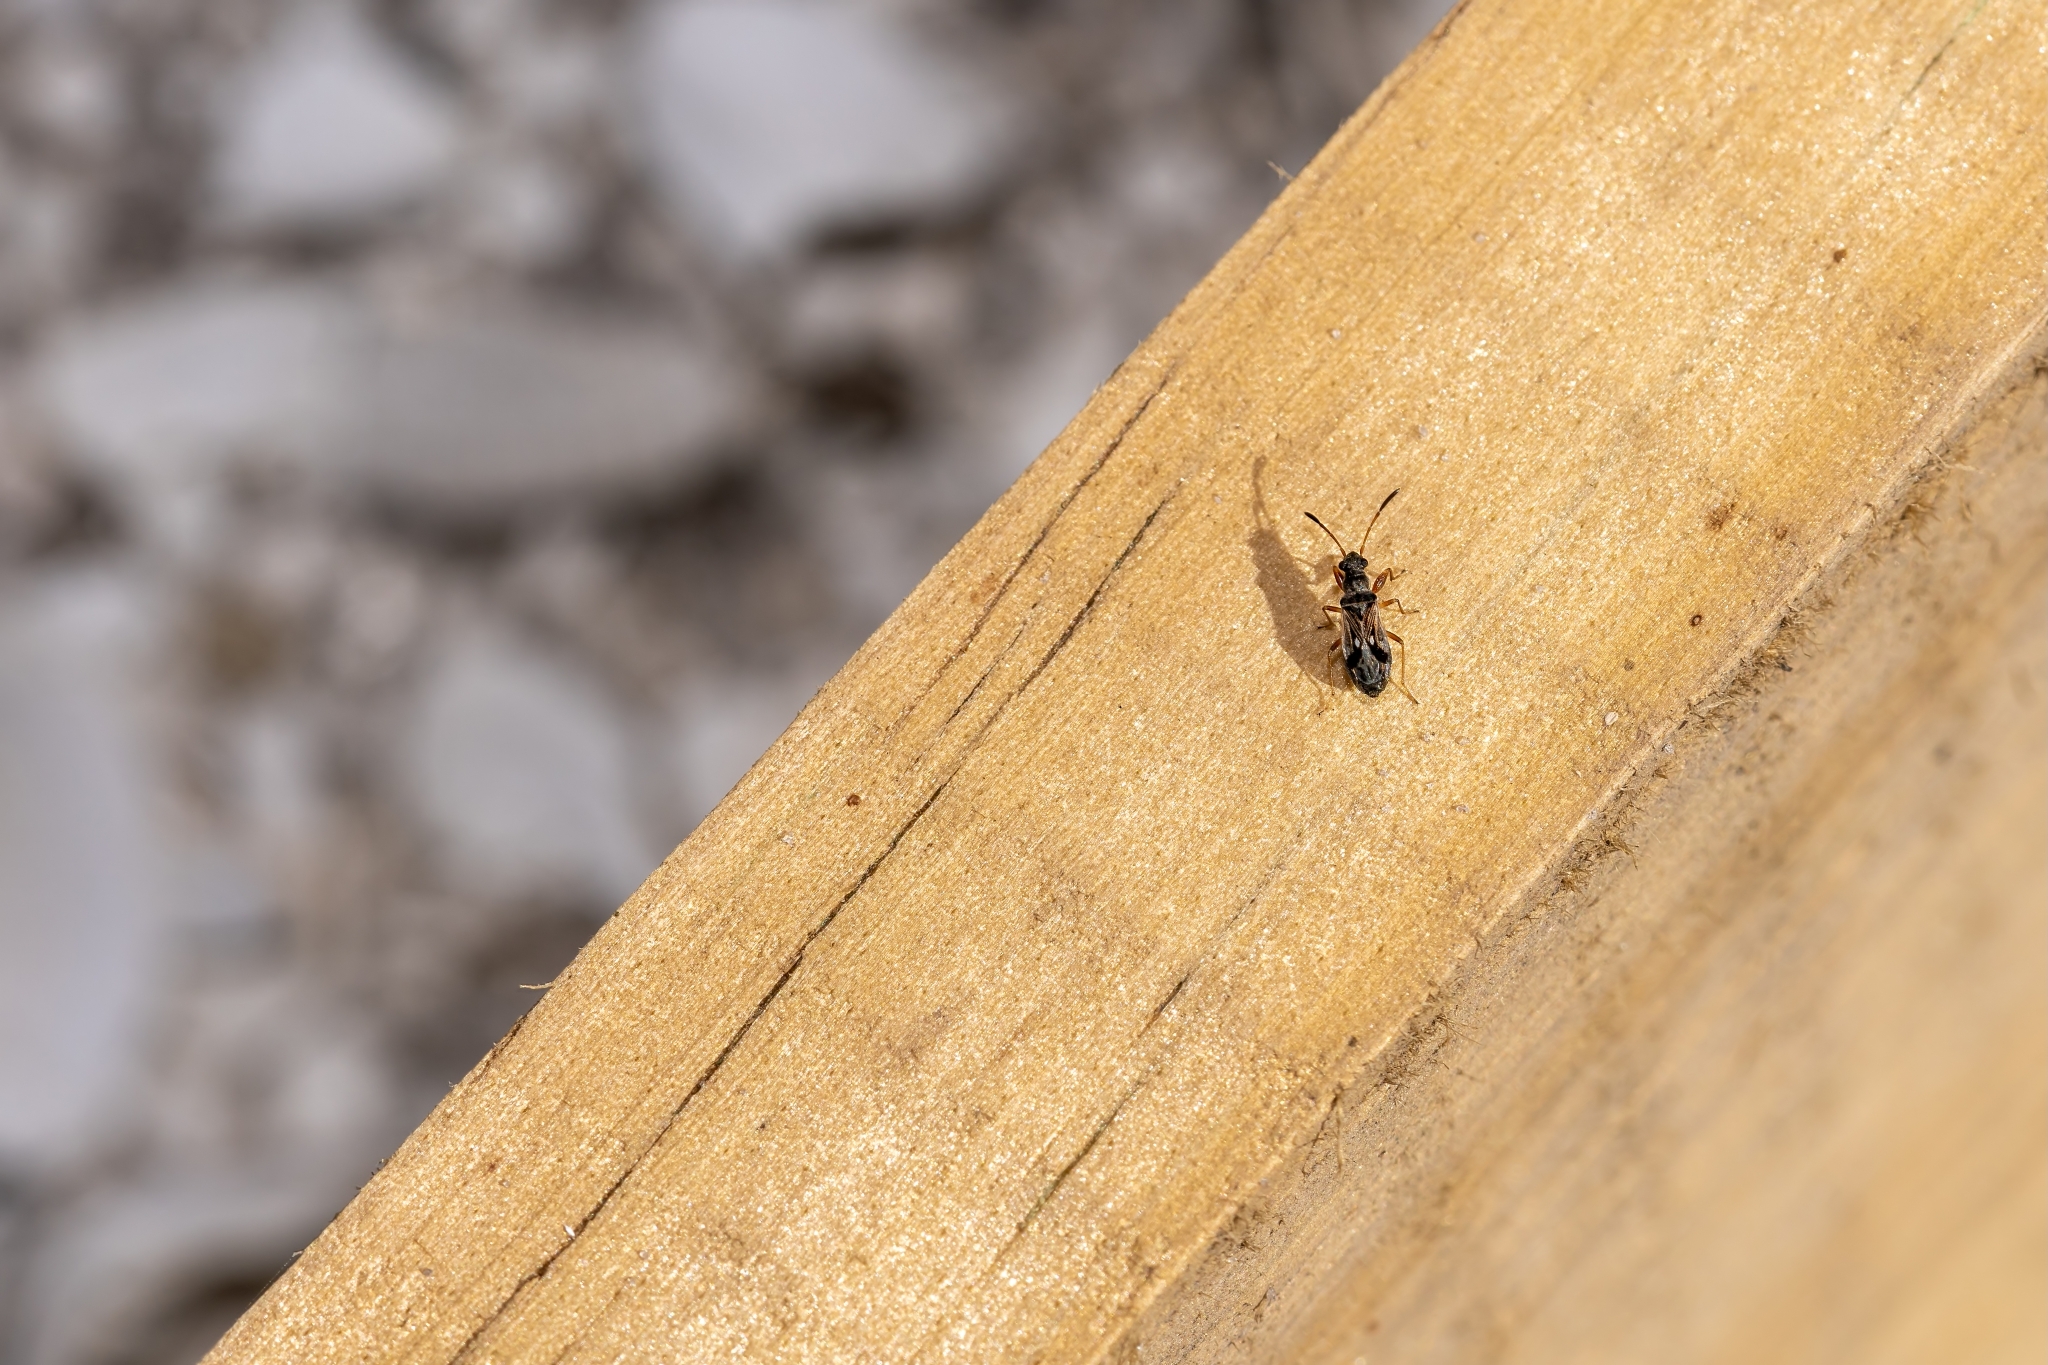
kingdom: Animalia
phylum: Arthropoda
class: Insecta
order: Hemiptera
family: Rhyparochromidae
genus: Pseudopachybrachius
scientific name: Pseudopachybrachius vinctus
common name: Dirt-colored seed bug
